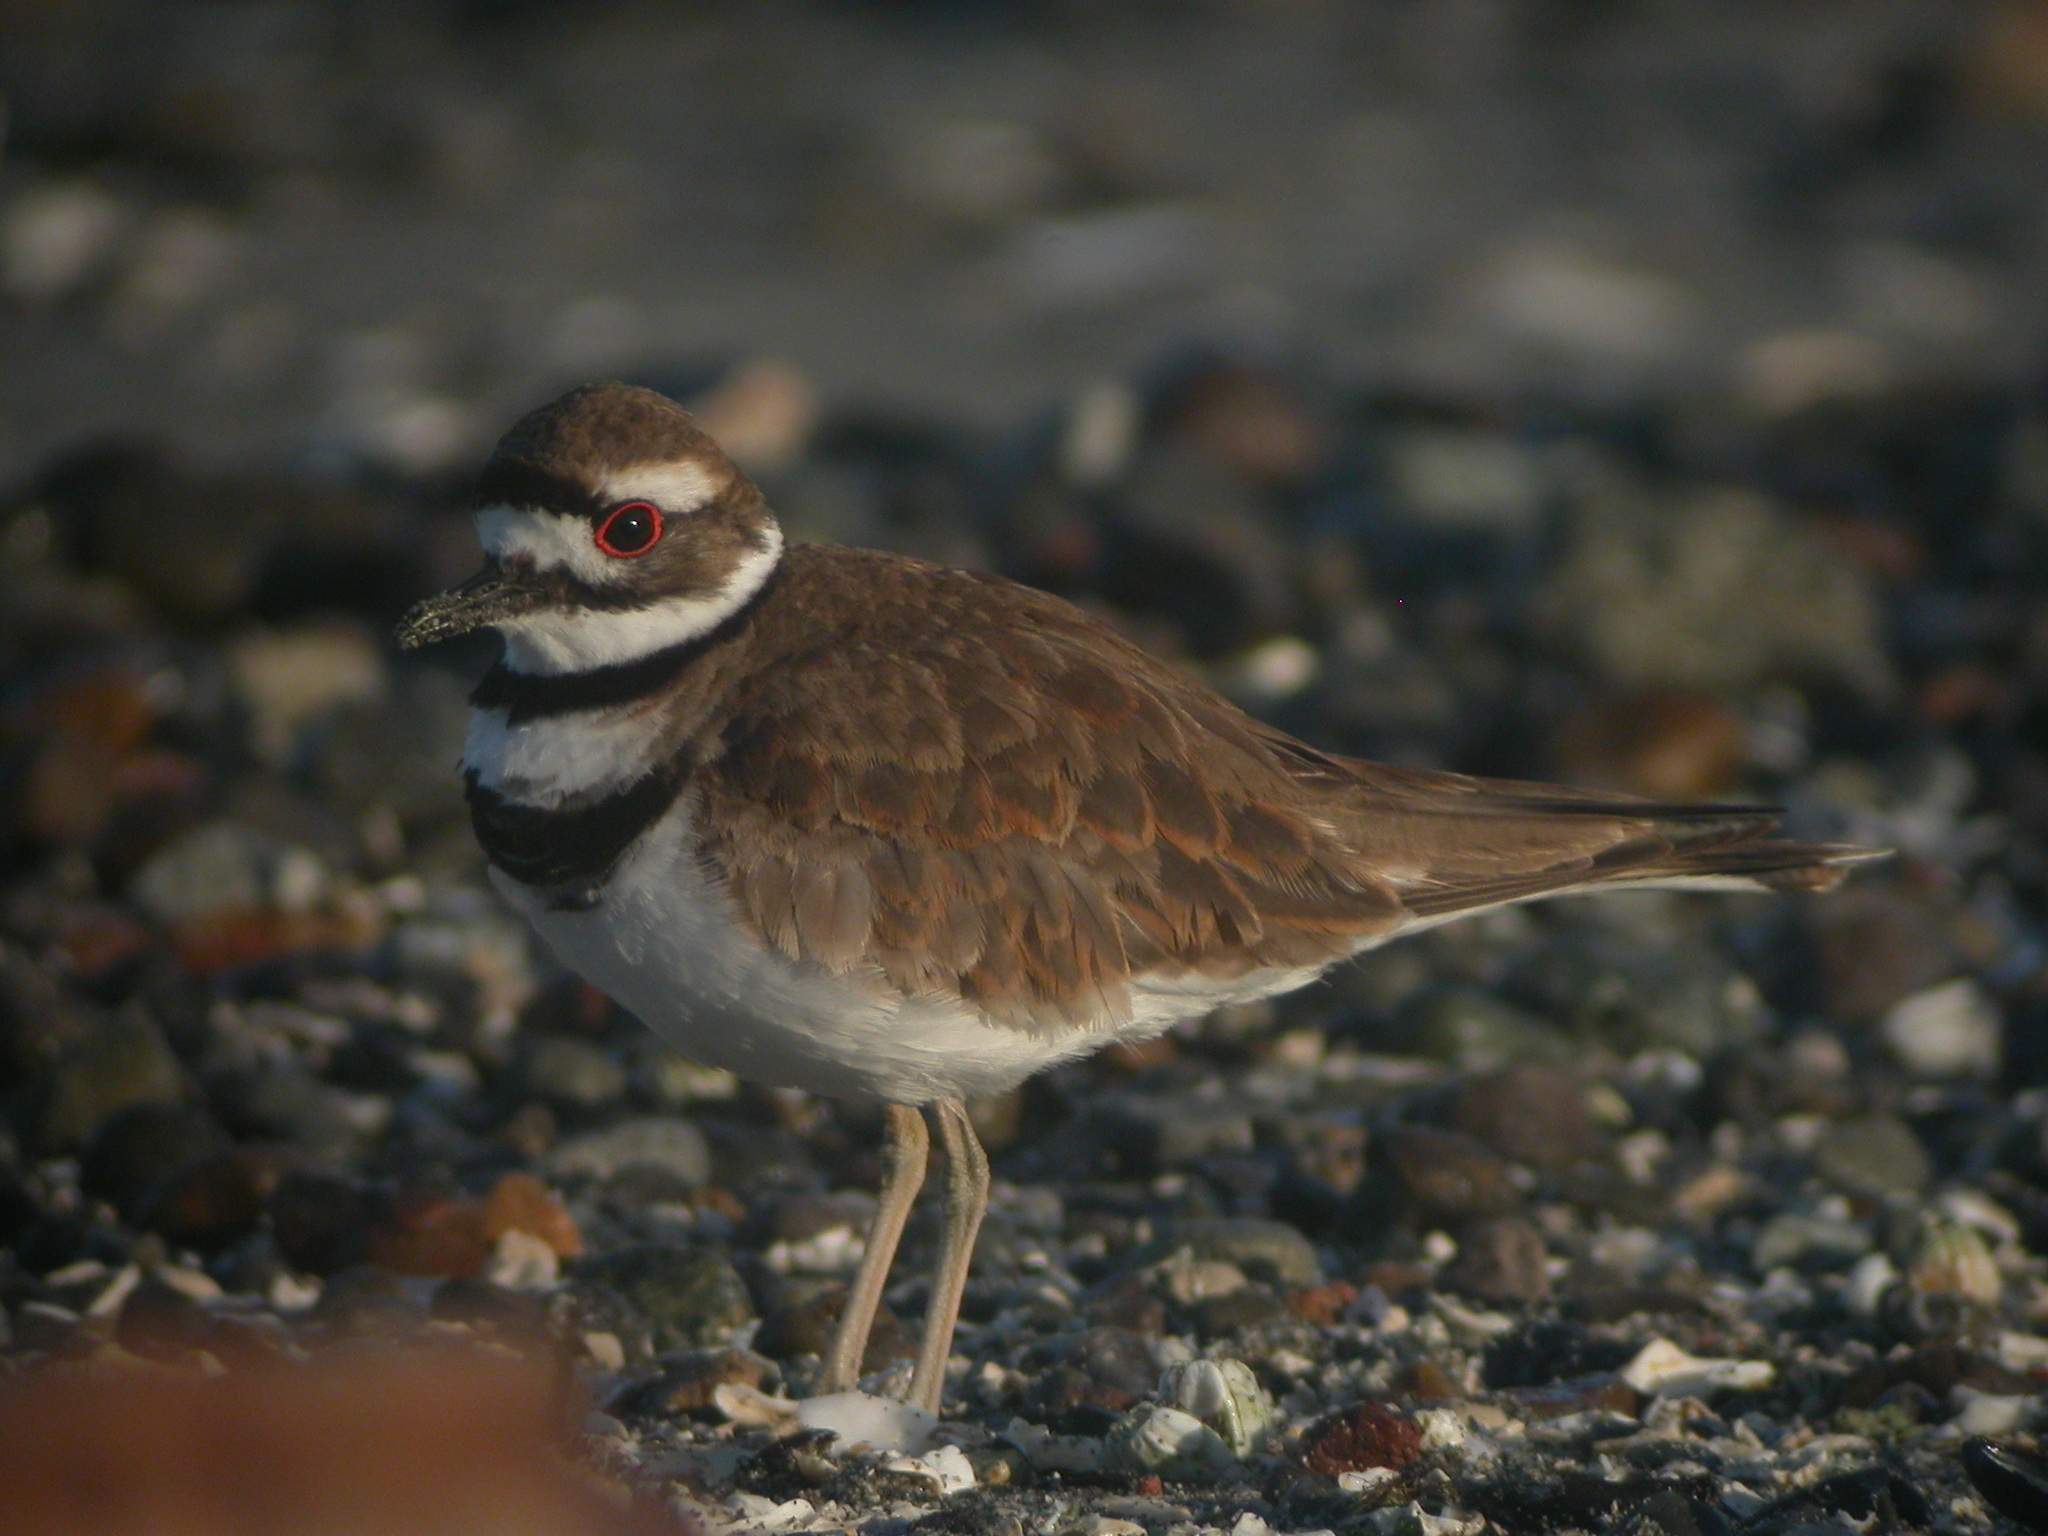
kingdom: Animalia
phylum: Chordata
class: Aves
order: Charadriiformes
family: Charadriidae
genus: Charadrius
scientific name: Charadrius vociferus
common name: Killdeer
